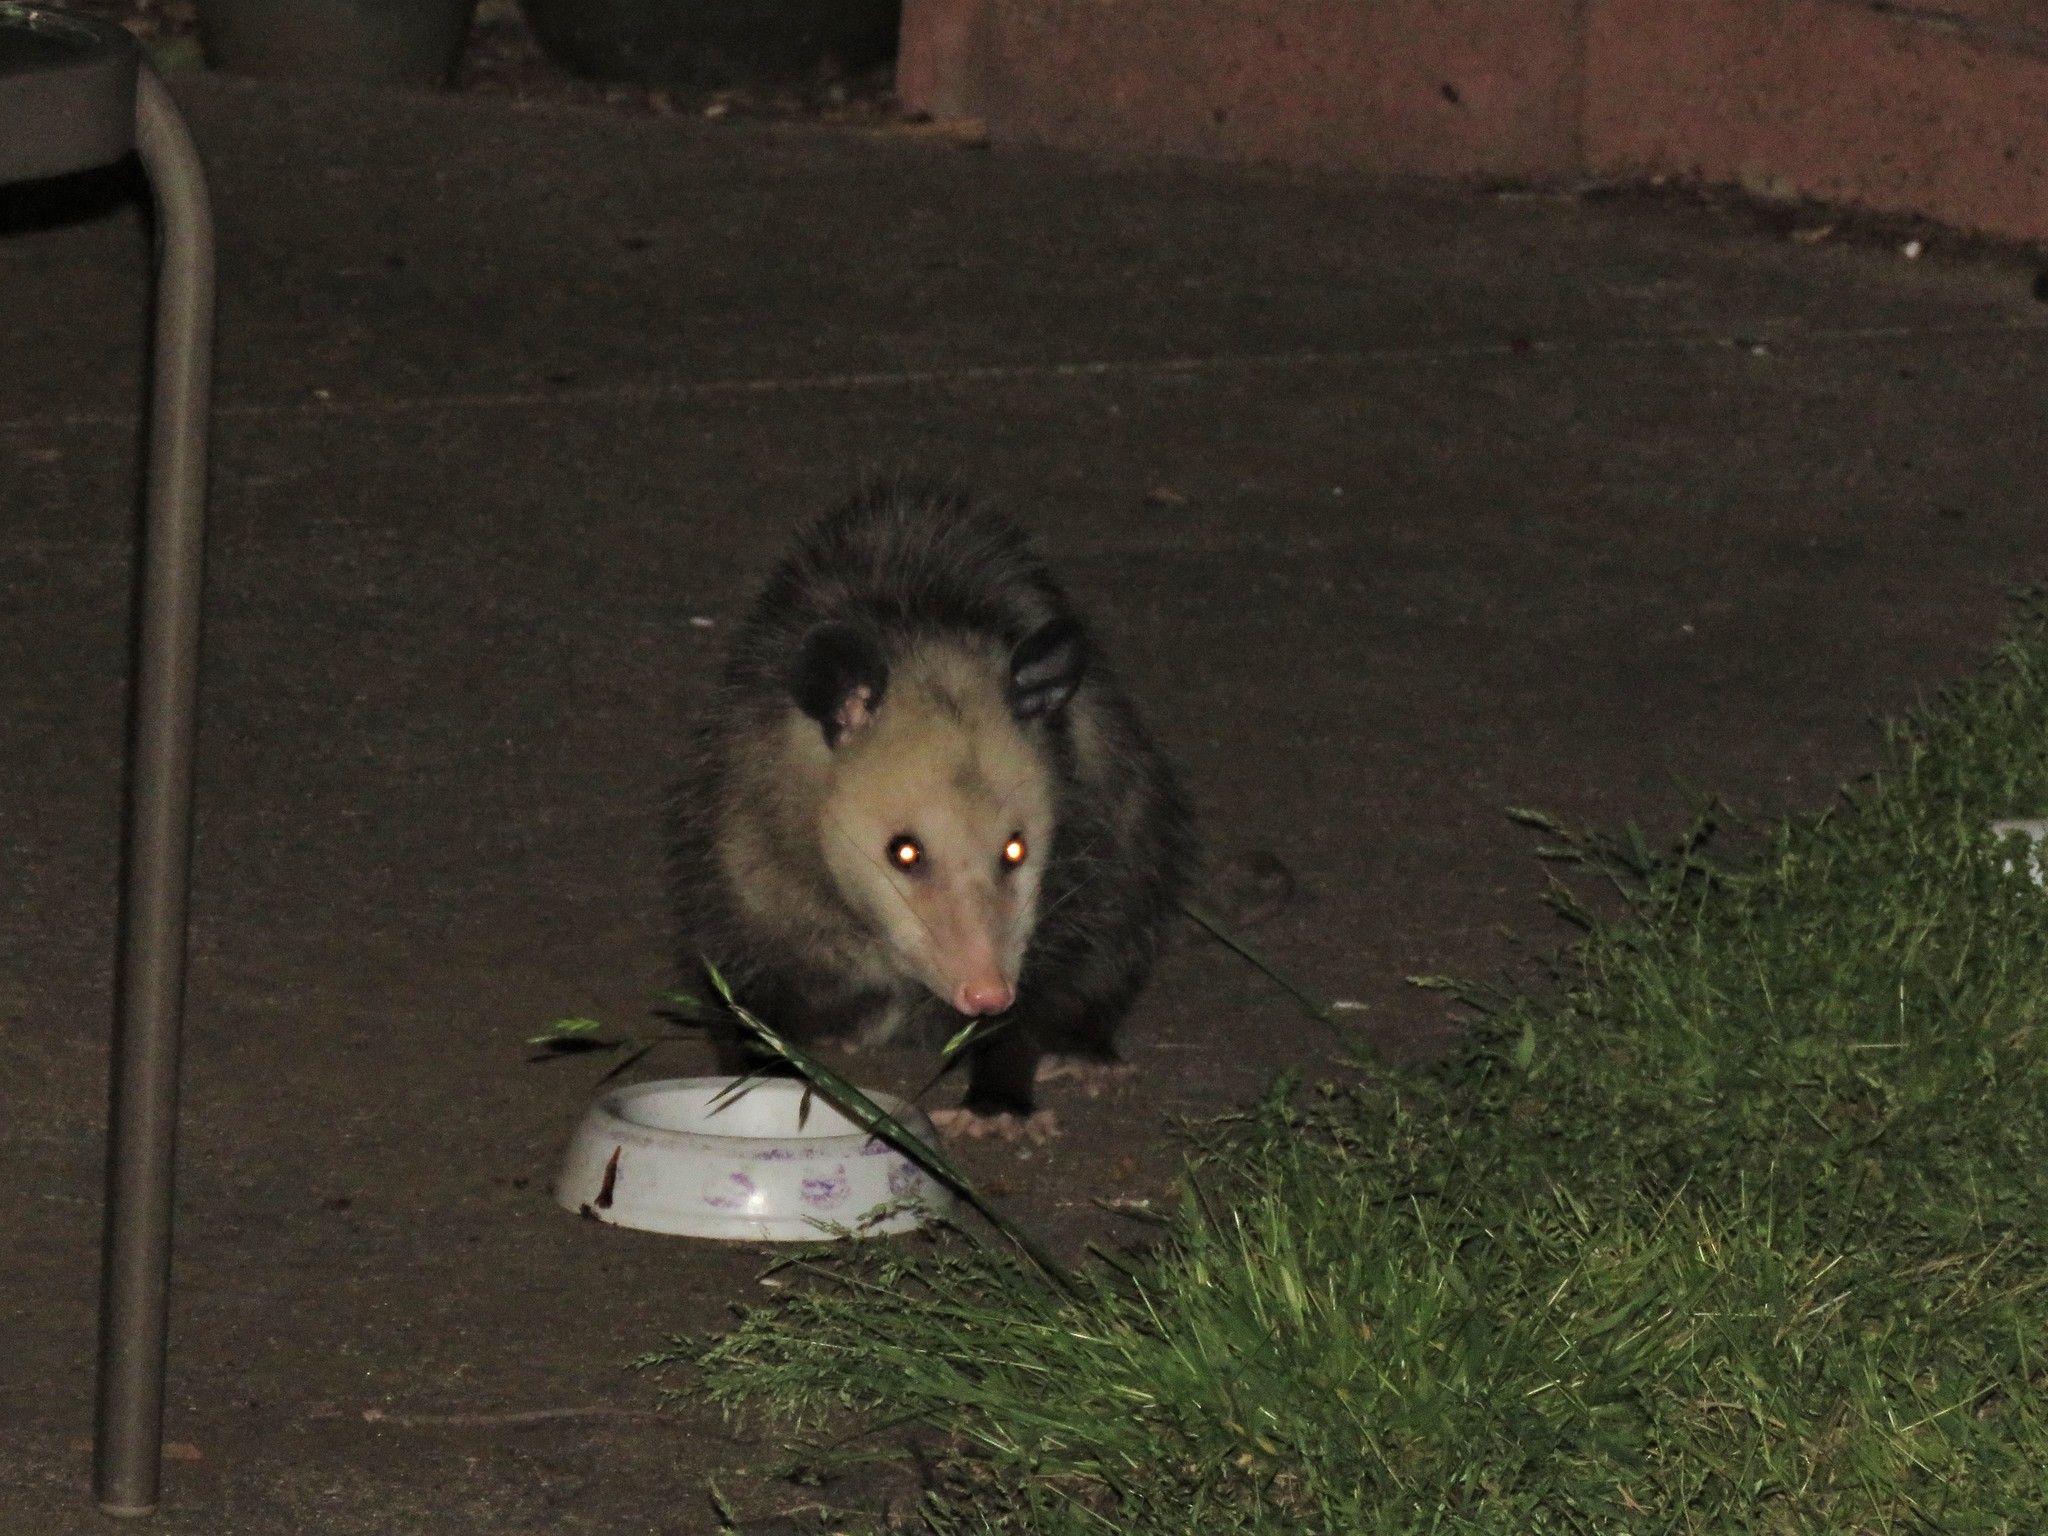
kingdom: Animalia
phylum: Chordata
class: Mammalia
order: Didelphimorphia
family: Didelphidae
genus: Didelphis
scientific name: Didelphis virginiana
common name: Virginia opossum
